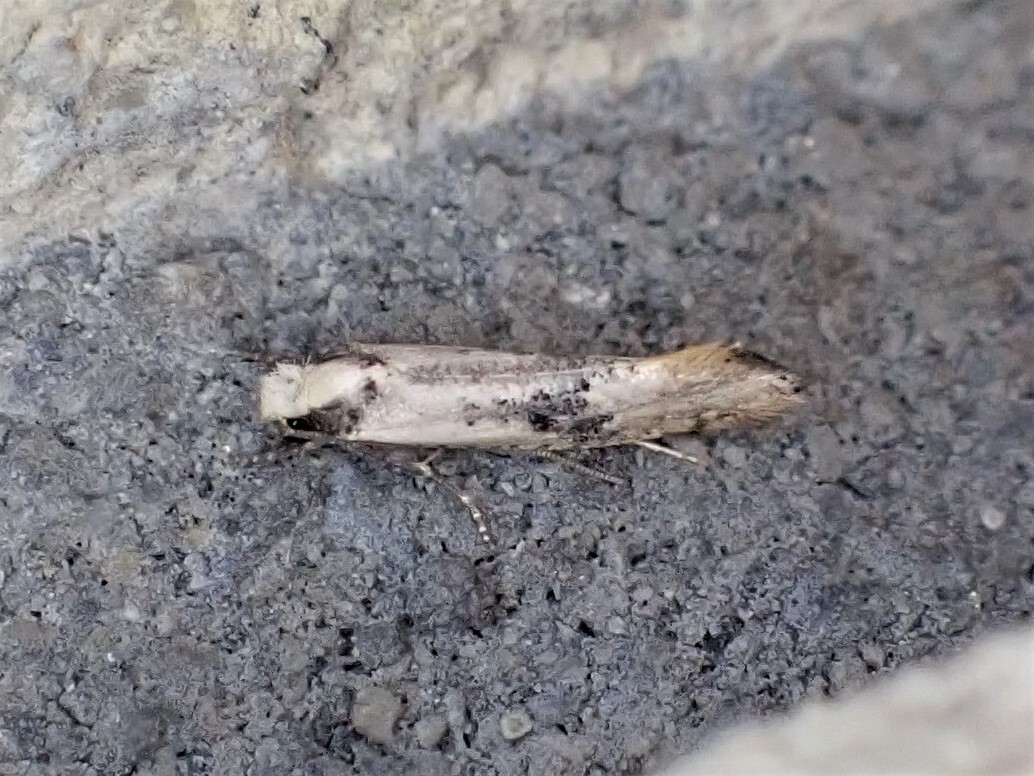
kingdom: Animalia
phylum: Arthropoda
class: Insecta
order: Lepidoptera
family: Tineidae
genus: Monopis
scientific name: Monopis argillacea
